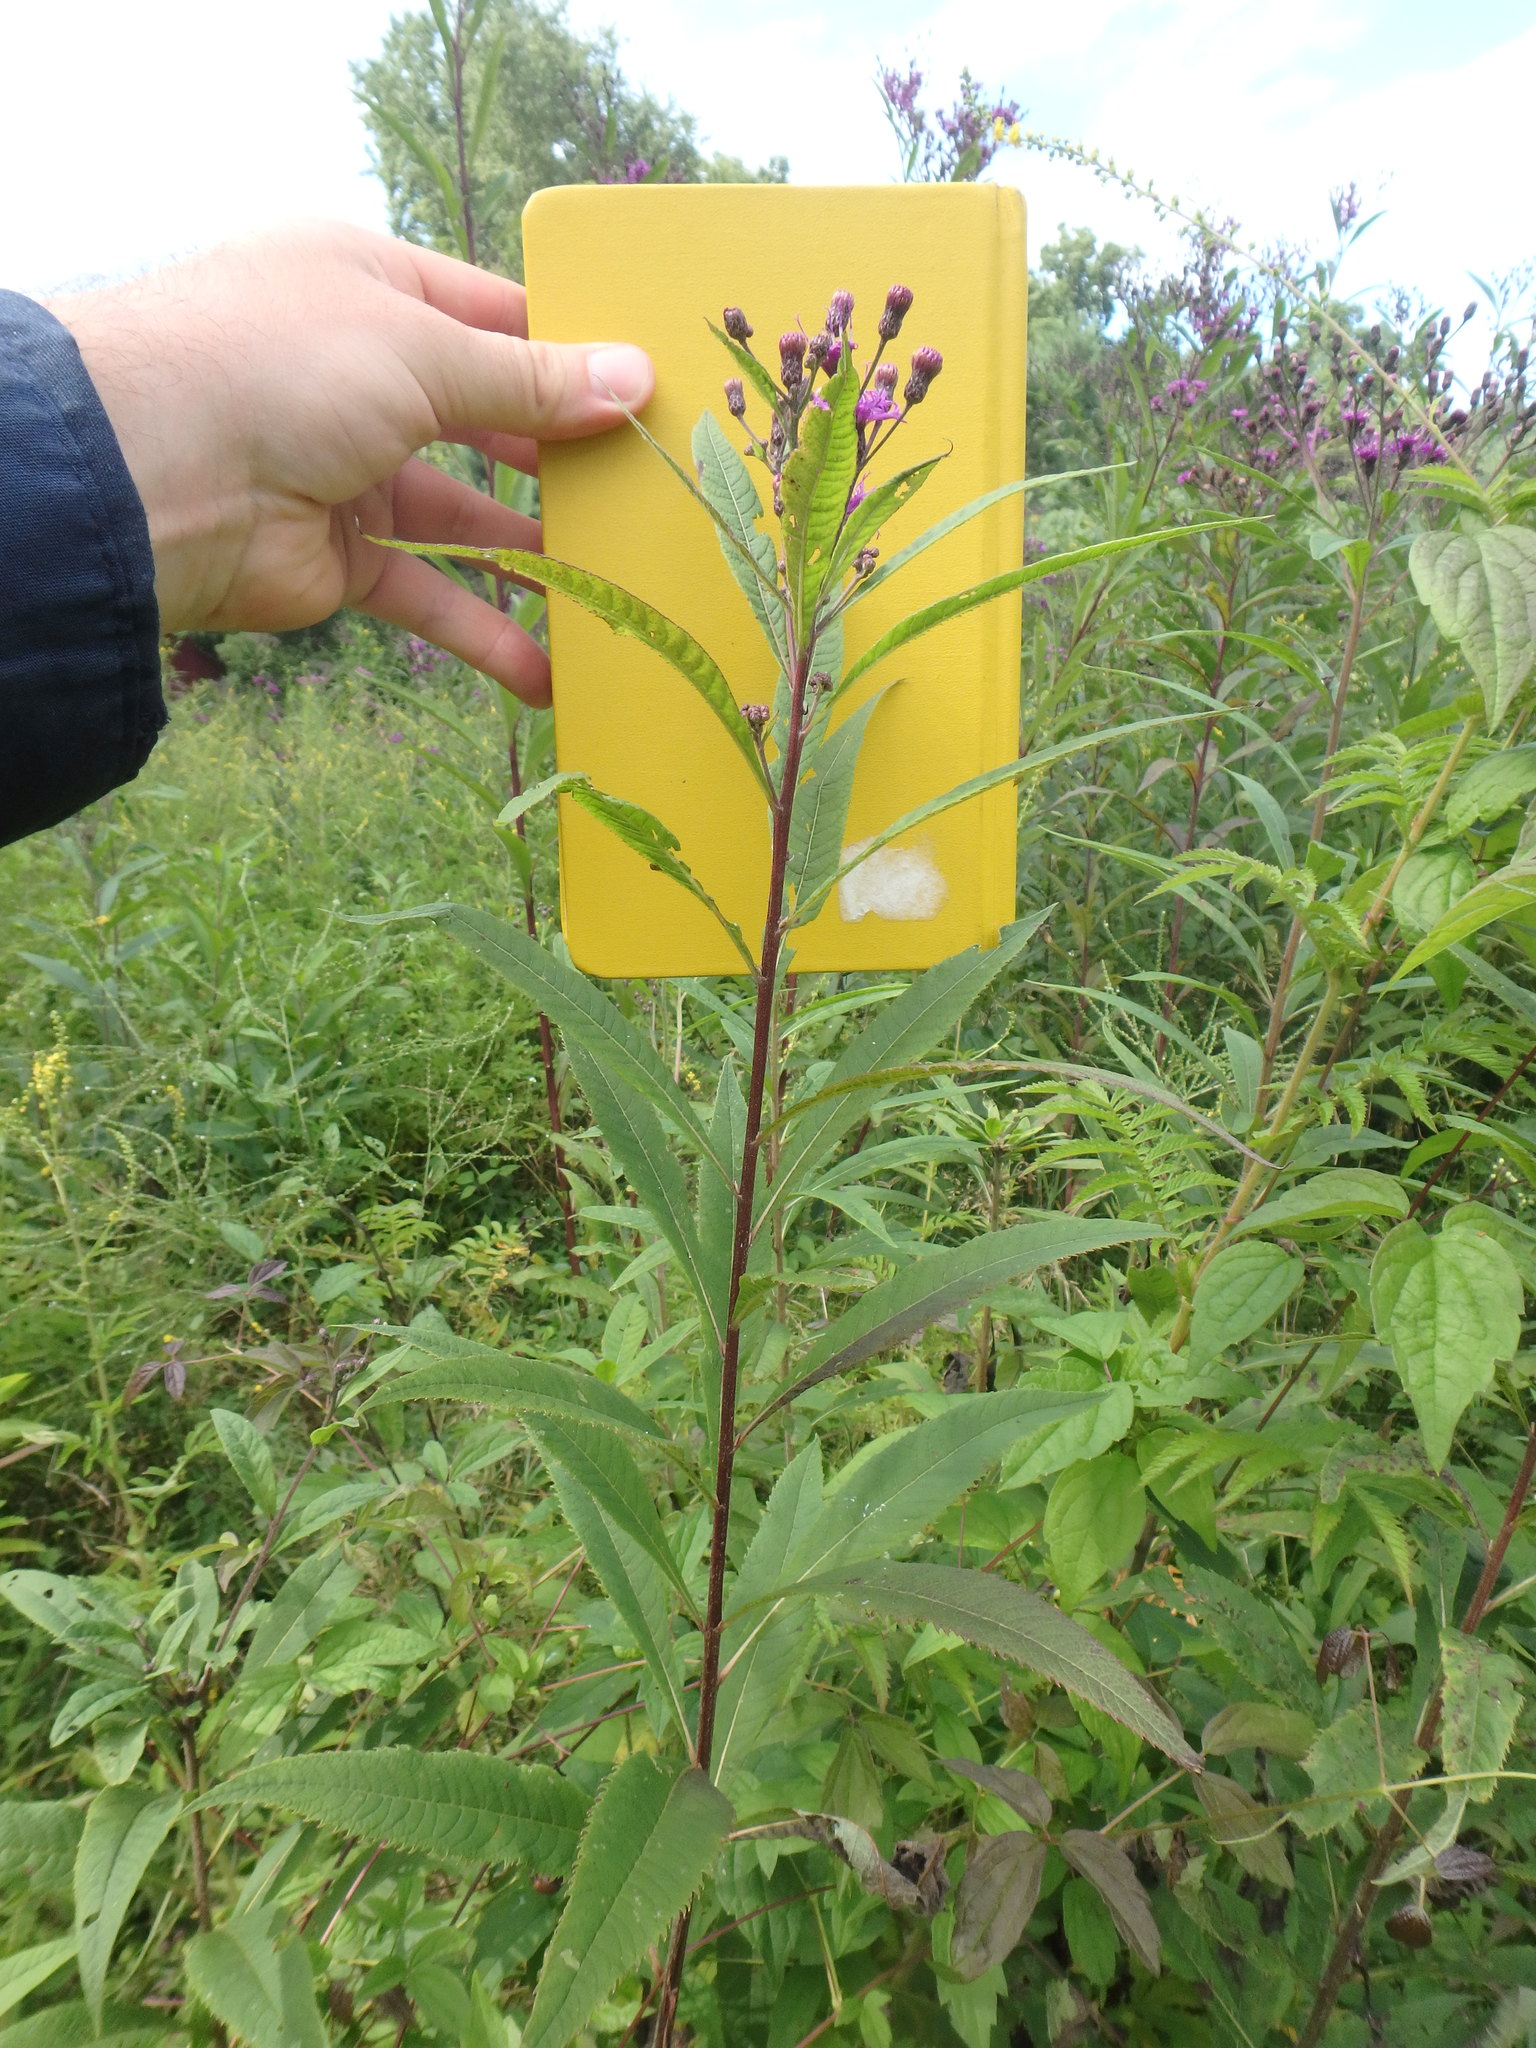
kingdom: Plantae
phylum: Tracheophyta
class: Magnoliopsida
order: Asterales
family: Asteraceae
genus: Vernonia
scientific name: Vernonia gigantea
